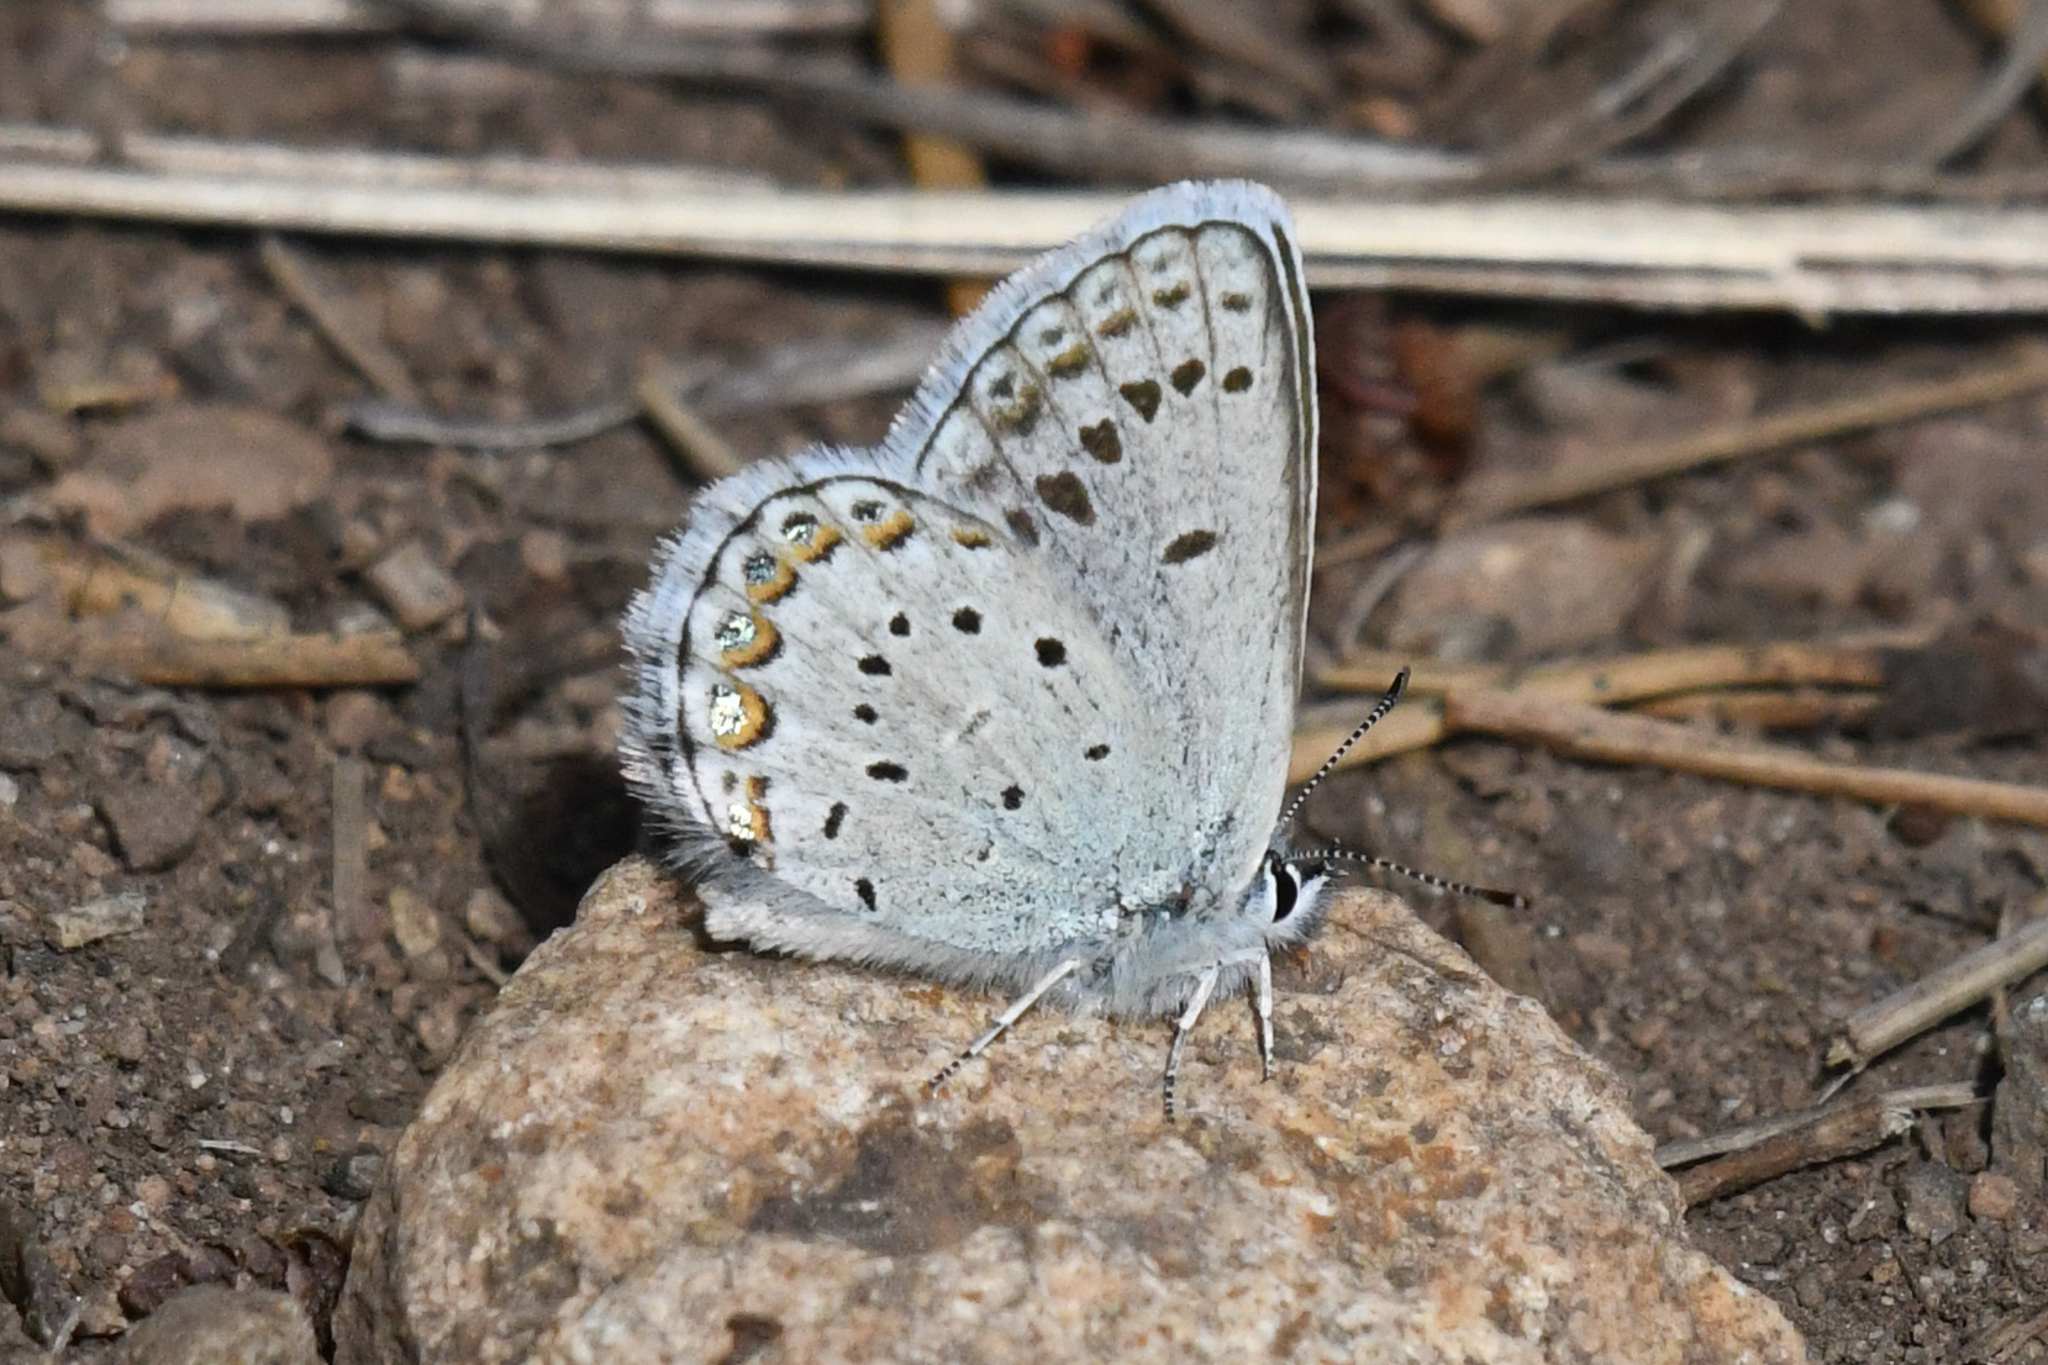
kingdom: Animalia
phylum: Arthropoda
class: Insecta
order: Lepidoptera
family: Lycaenidae
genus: Lycaeides
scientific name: Lycaeides idas
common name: Northern blue
